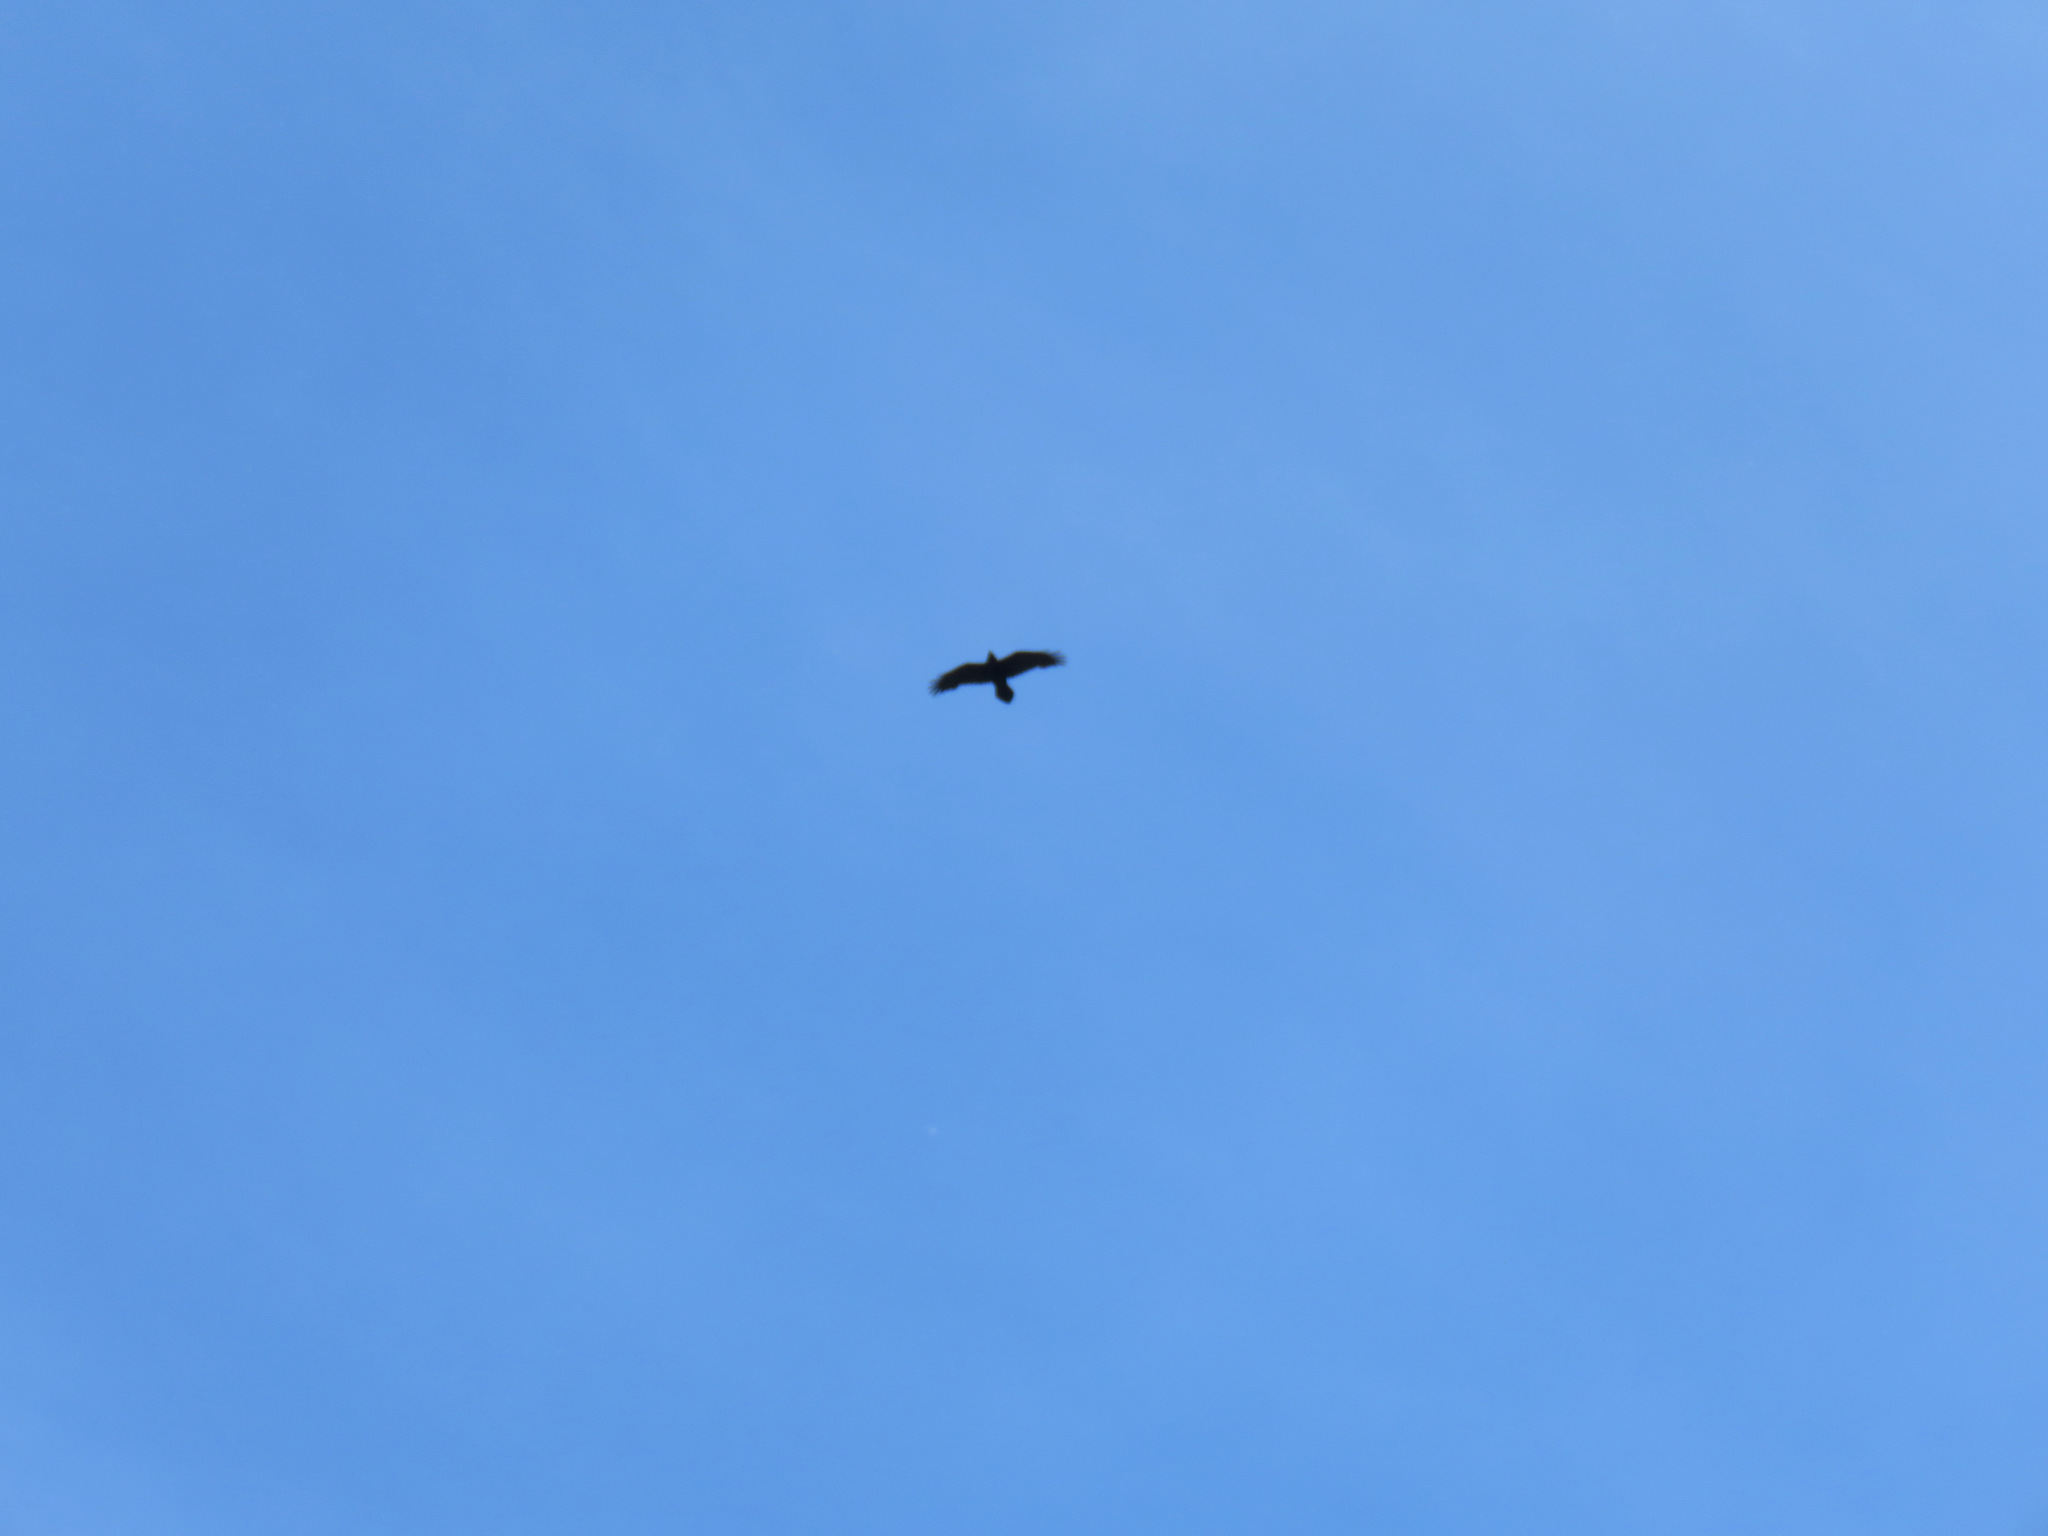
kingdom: Animalia
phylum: Chordata
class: Aves
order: Passeriformes
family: Corvidae
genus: Corvus
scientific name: Corvus corax
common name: Common raven
